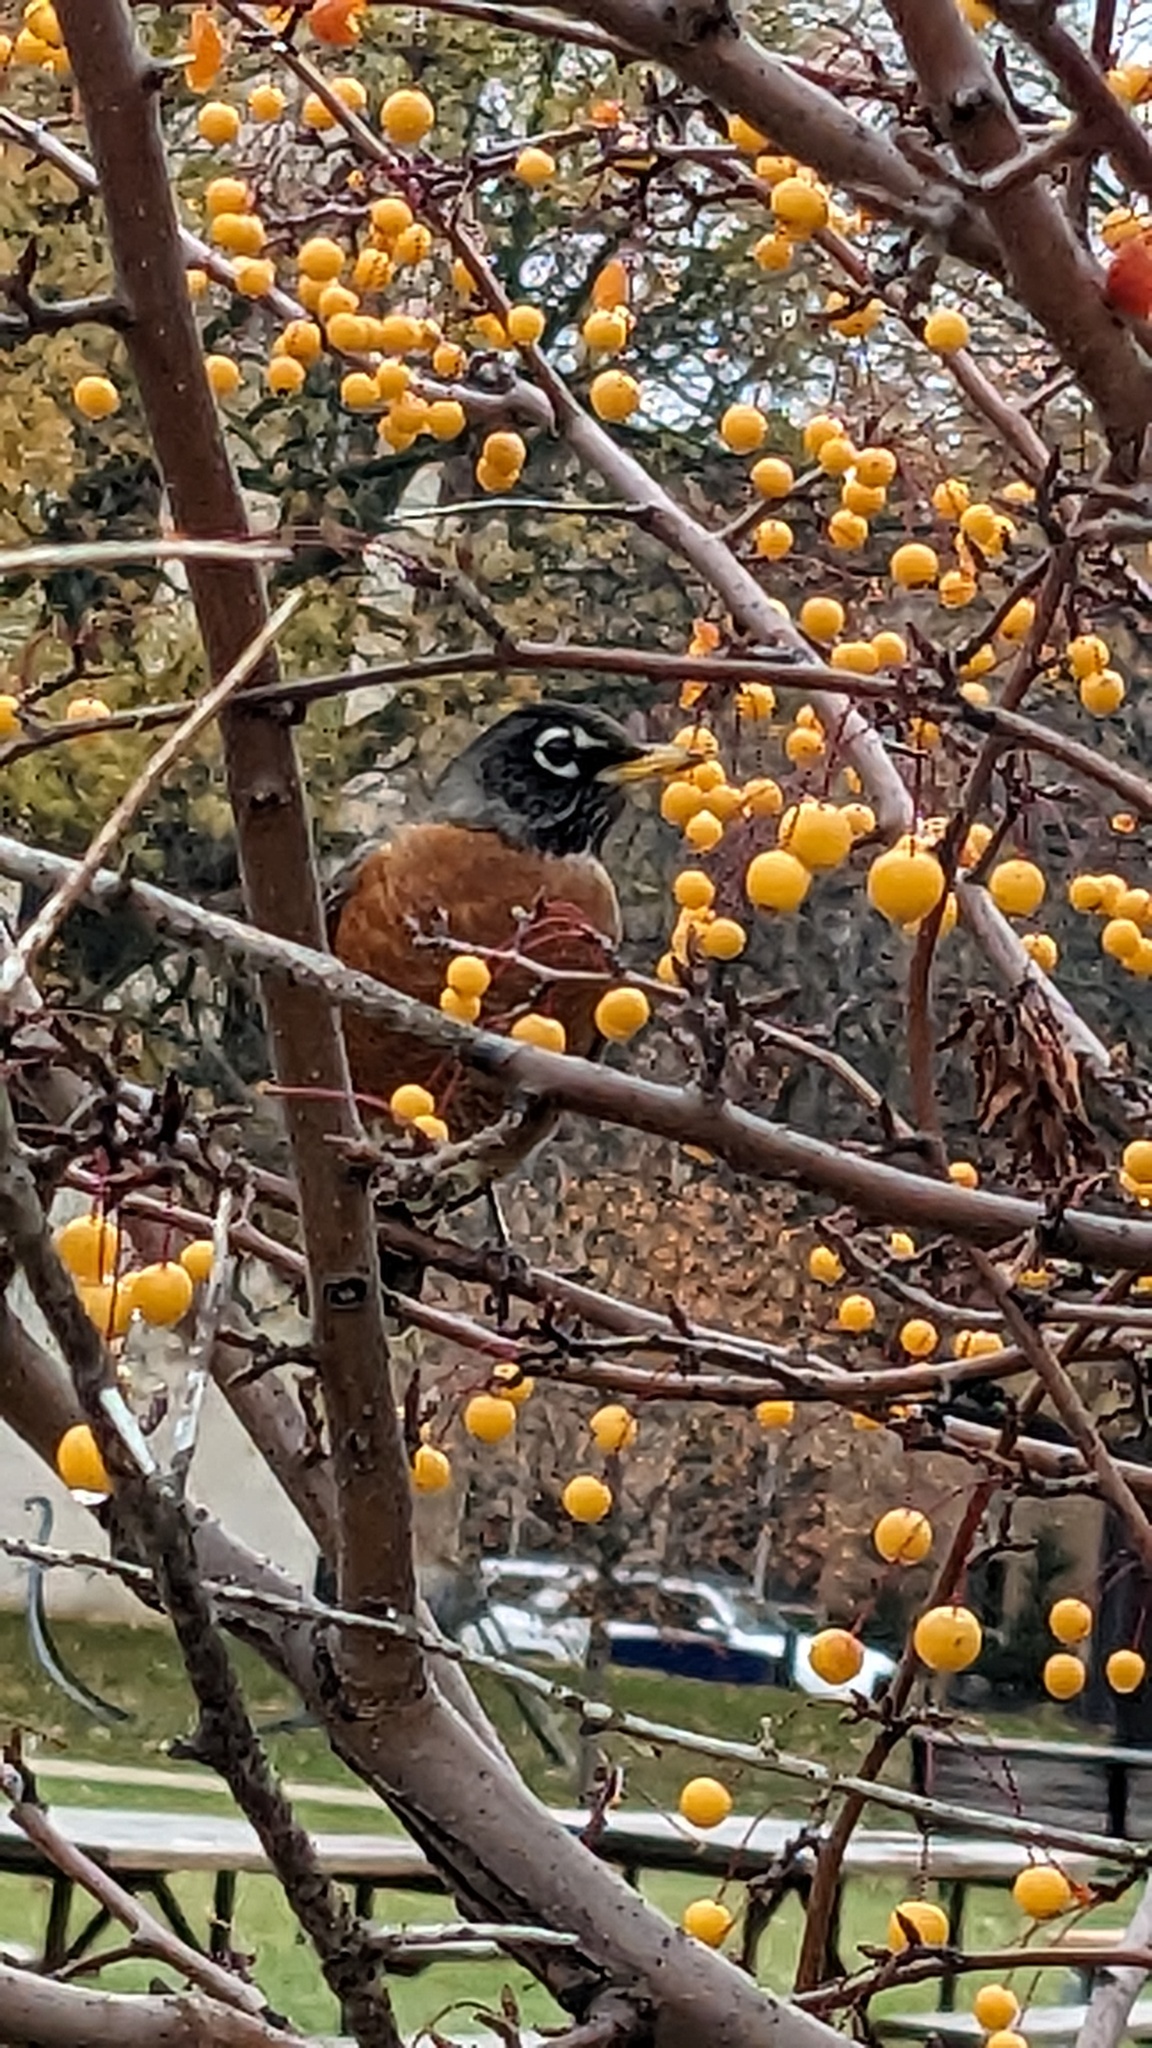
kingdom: Animalia
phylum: Chordata
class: Aves
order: Passeriformes
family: Turdidae
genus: Turdus
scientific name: Turdus migratorius
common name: American robin
